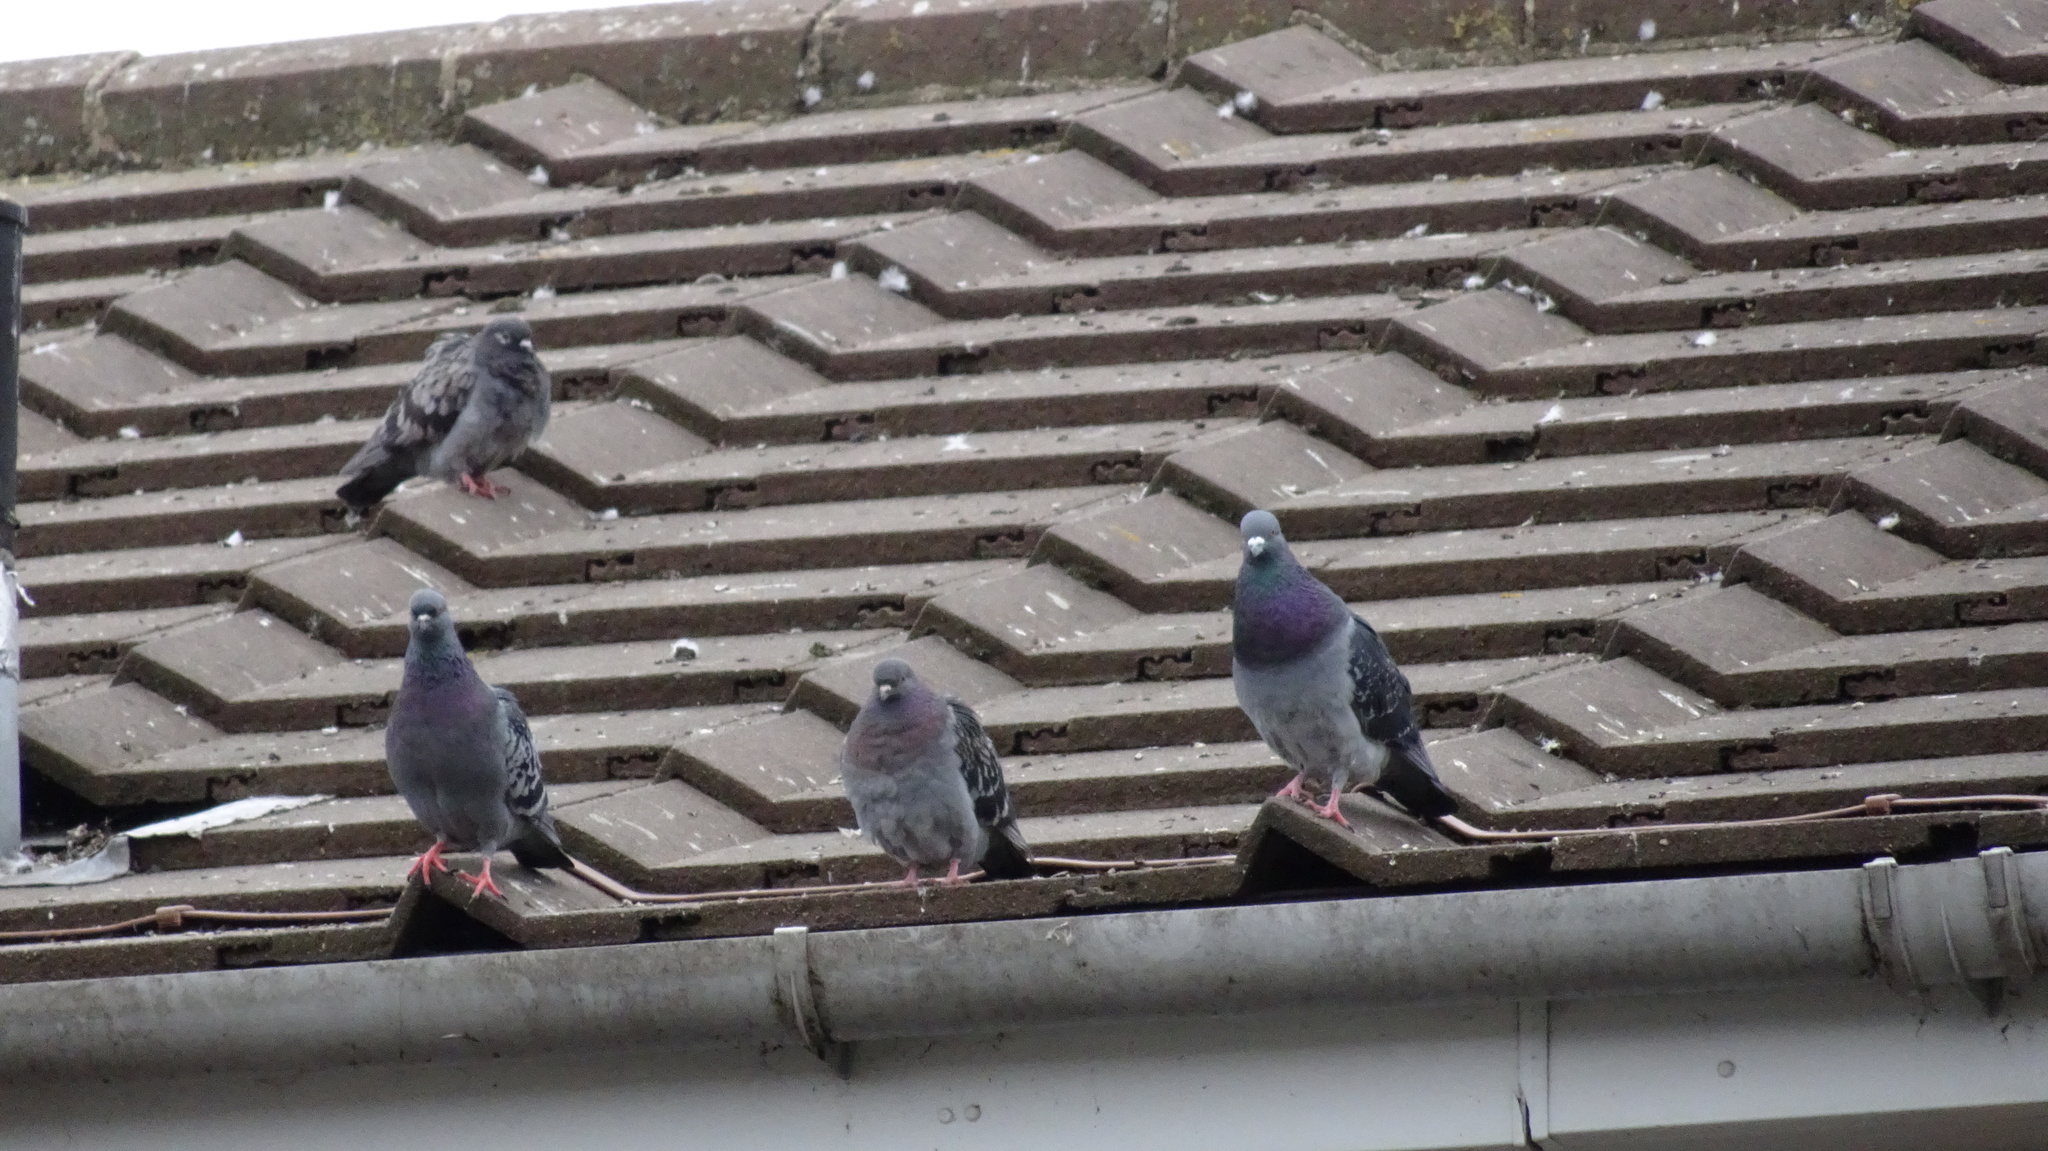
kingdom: Animalia
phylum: Chordata
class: Aves
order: Columbiformes
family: Columbidae
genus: Columba
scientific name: Columba livia
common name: Rock pigeon
